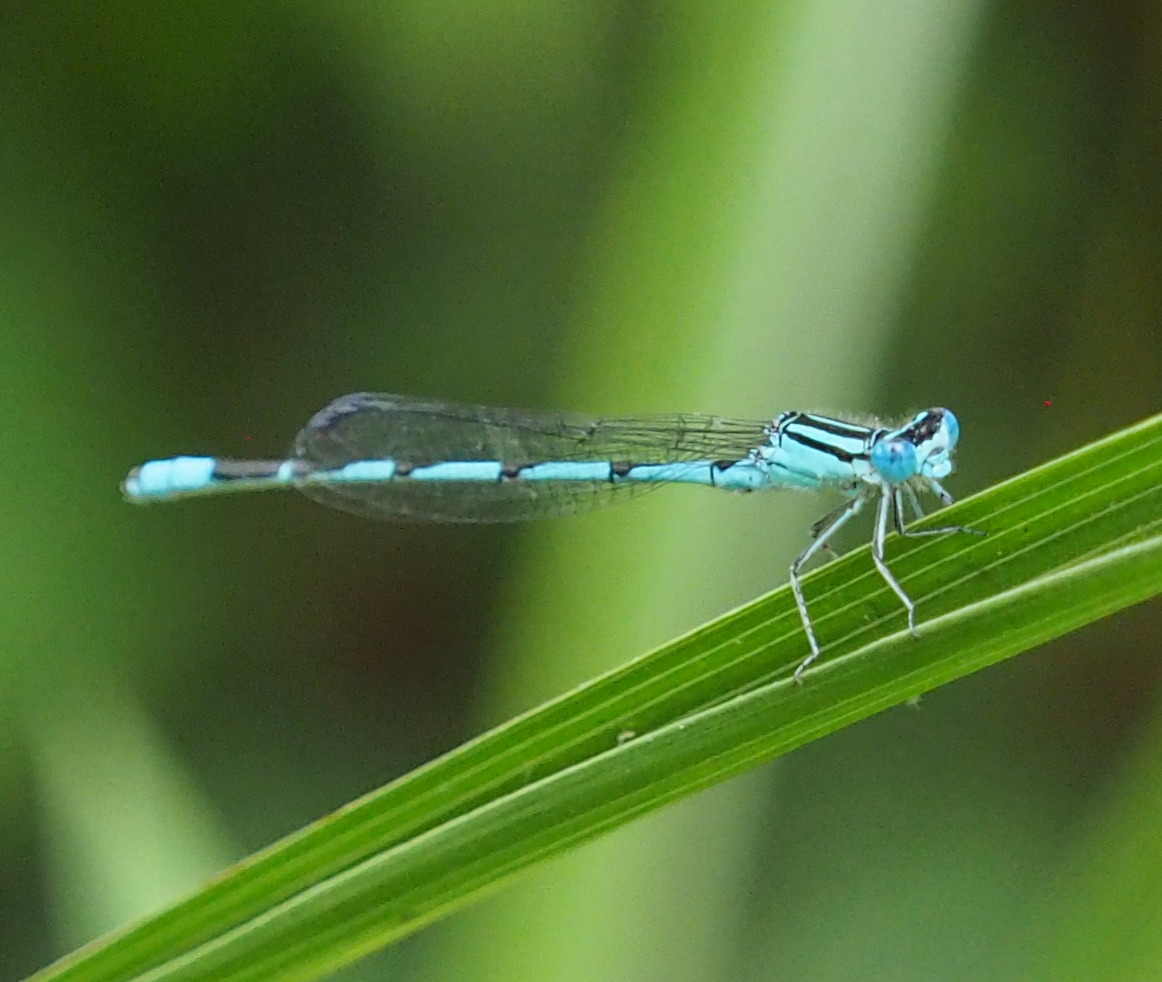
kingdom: Animalia
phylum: Arthropoda
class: Insecta
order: Odonata
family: Coenagrionidae
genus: Enallagma
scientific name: Enallagma durum
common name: Big bluet
